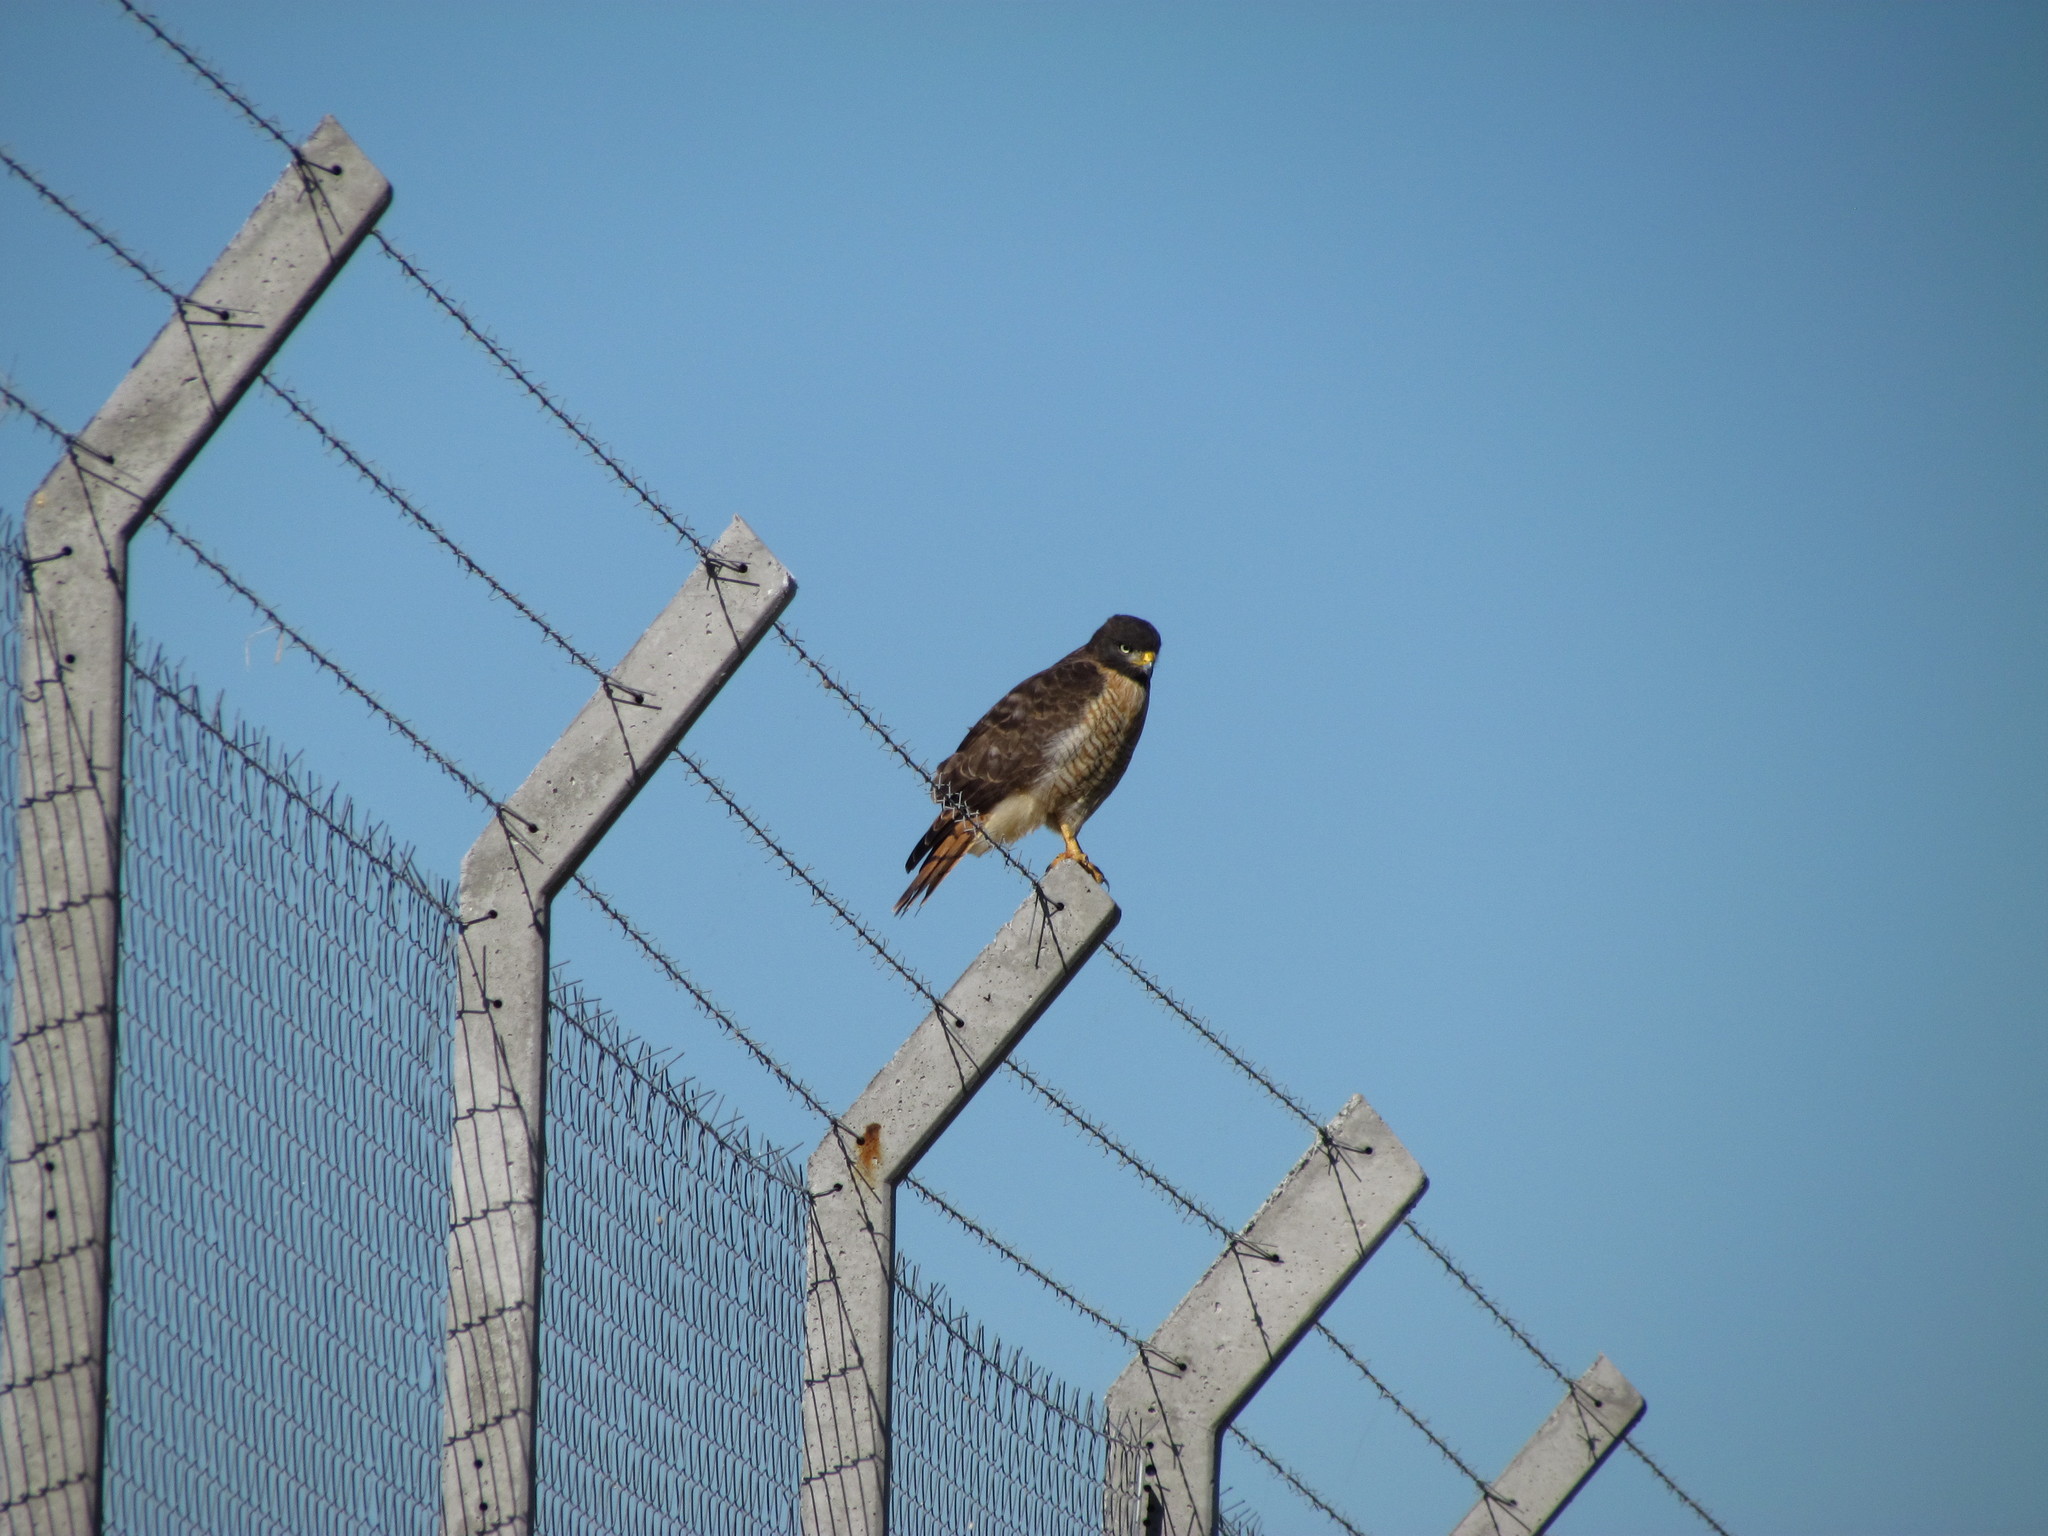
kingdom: Animalia
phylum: Chordata
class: Aves
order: Accipitriformes
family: Accipitridae
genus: Rupornis
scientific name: Rupornis magnirostris
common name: Roadside hawk
